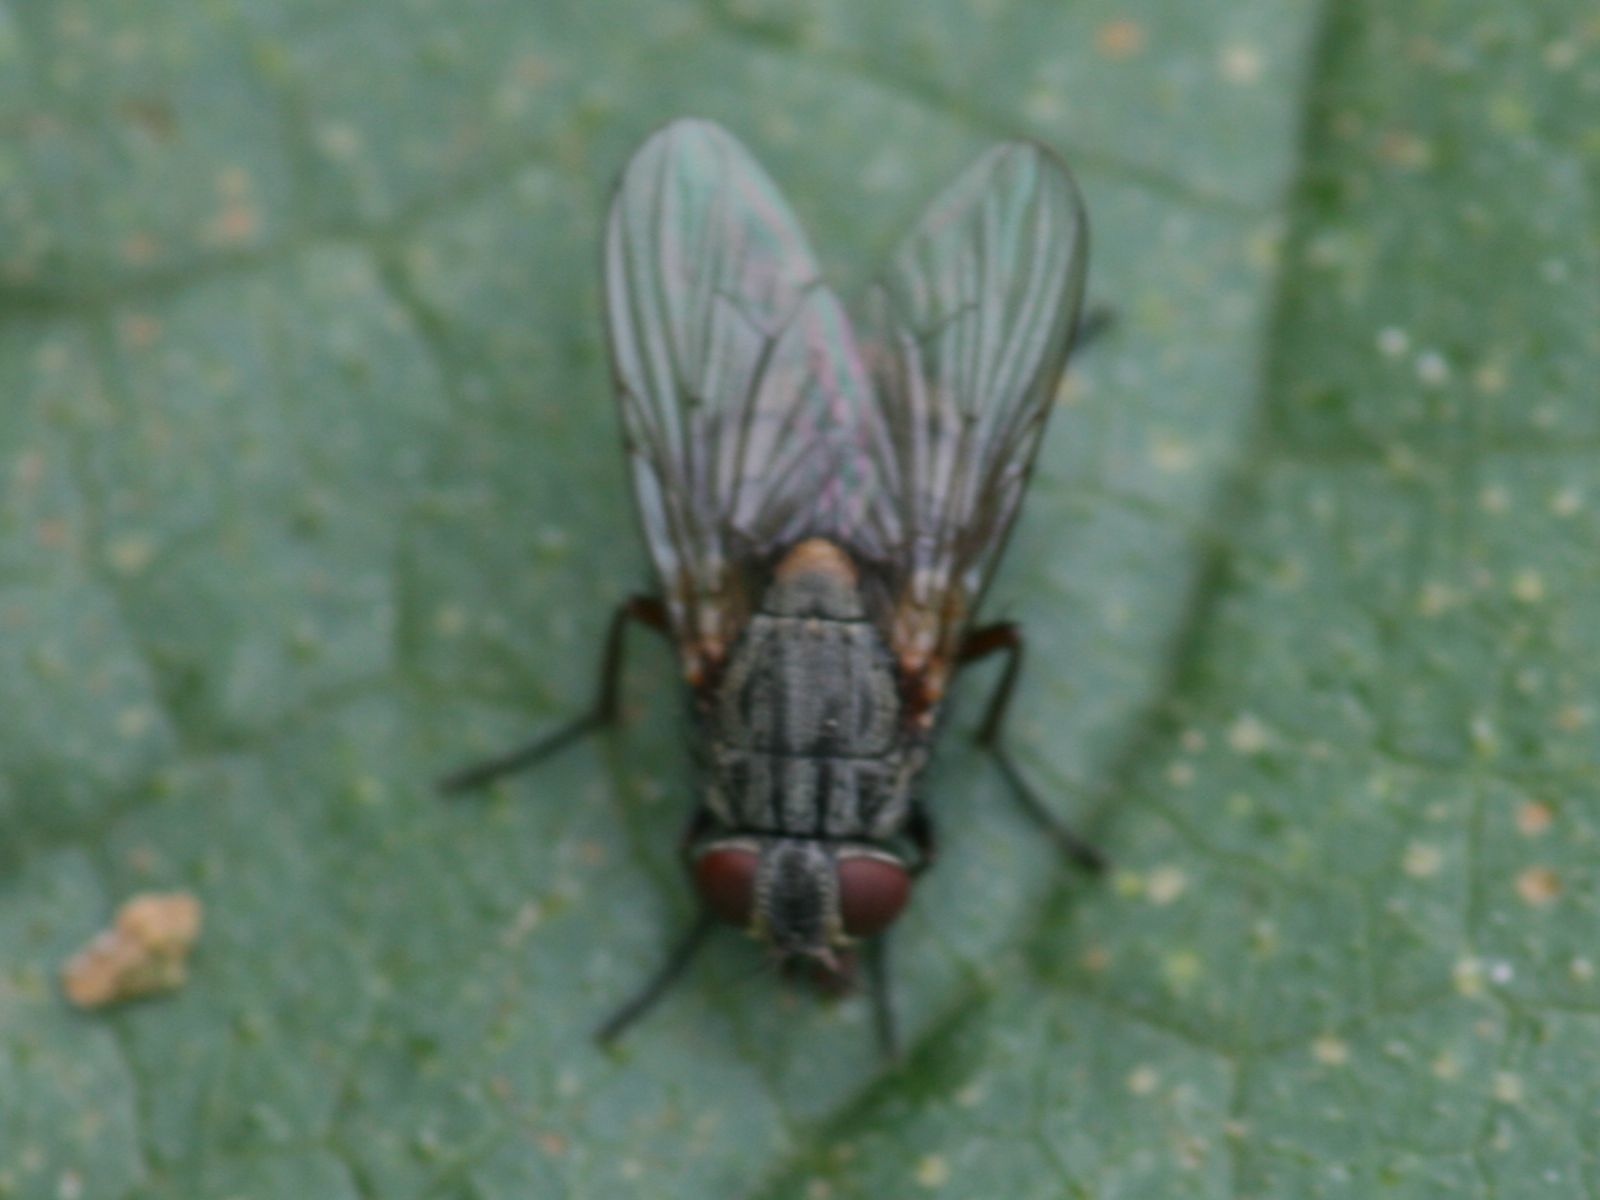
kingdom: Animalia
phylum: Arthropoda
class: Insecta
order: Diptera
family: Muscidae
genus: Muscina
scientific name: Muscina stabulans
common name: False stable fly
